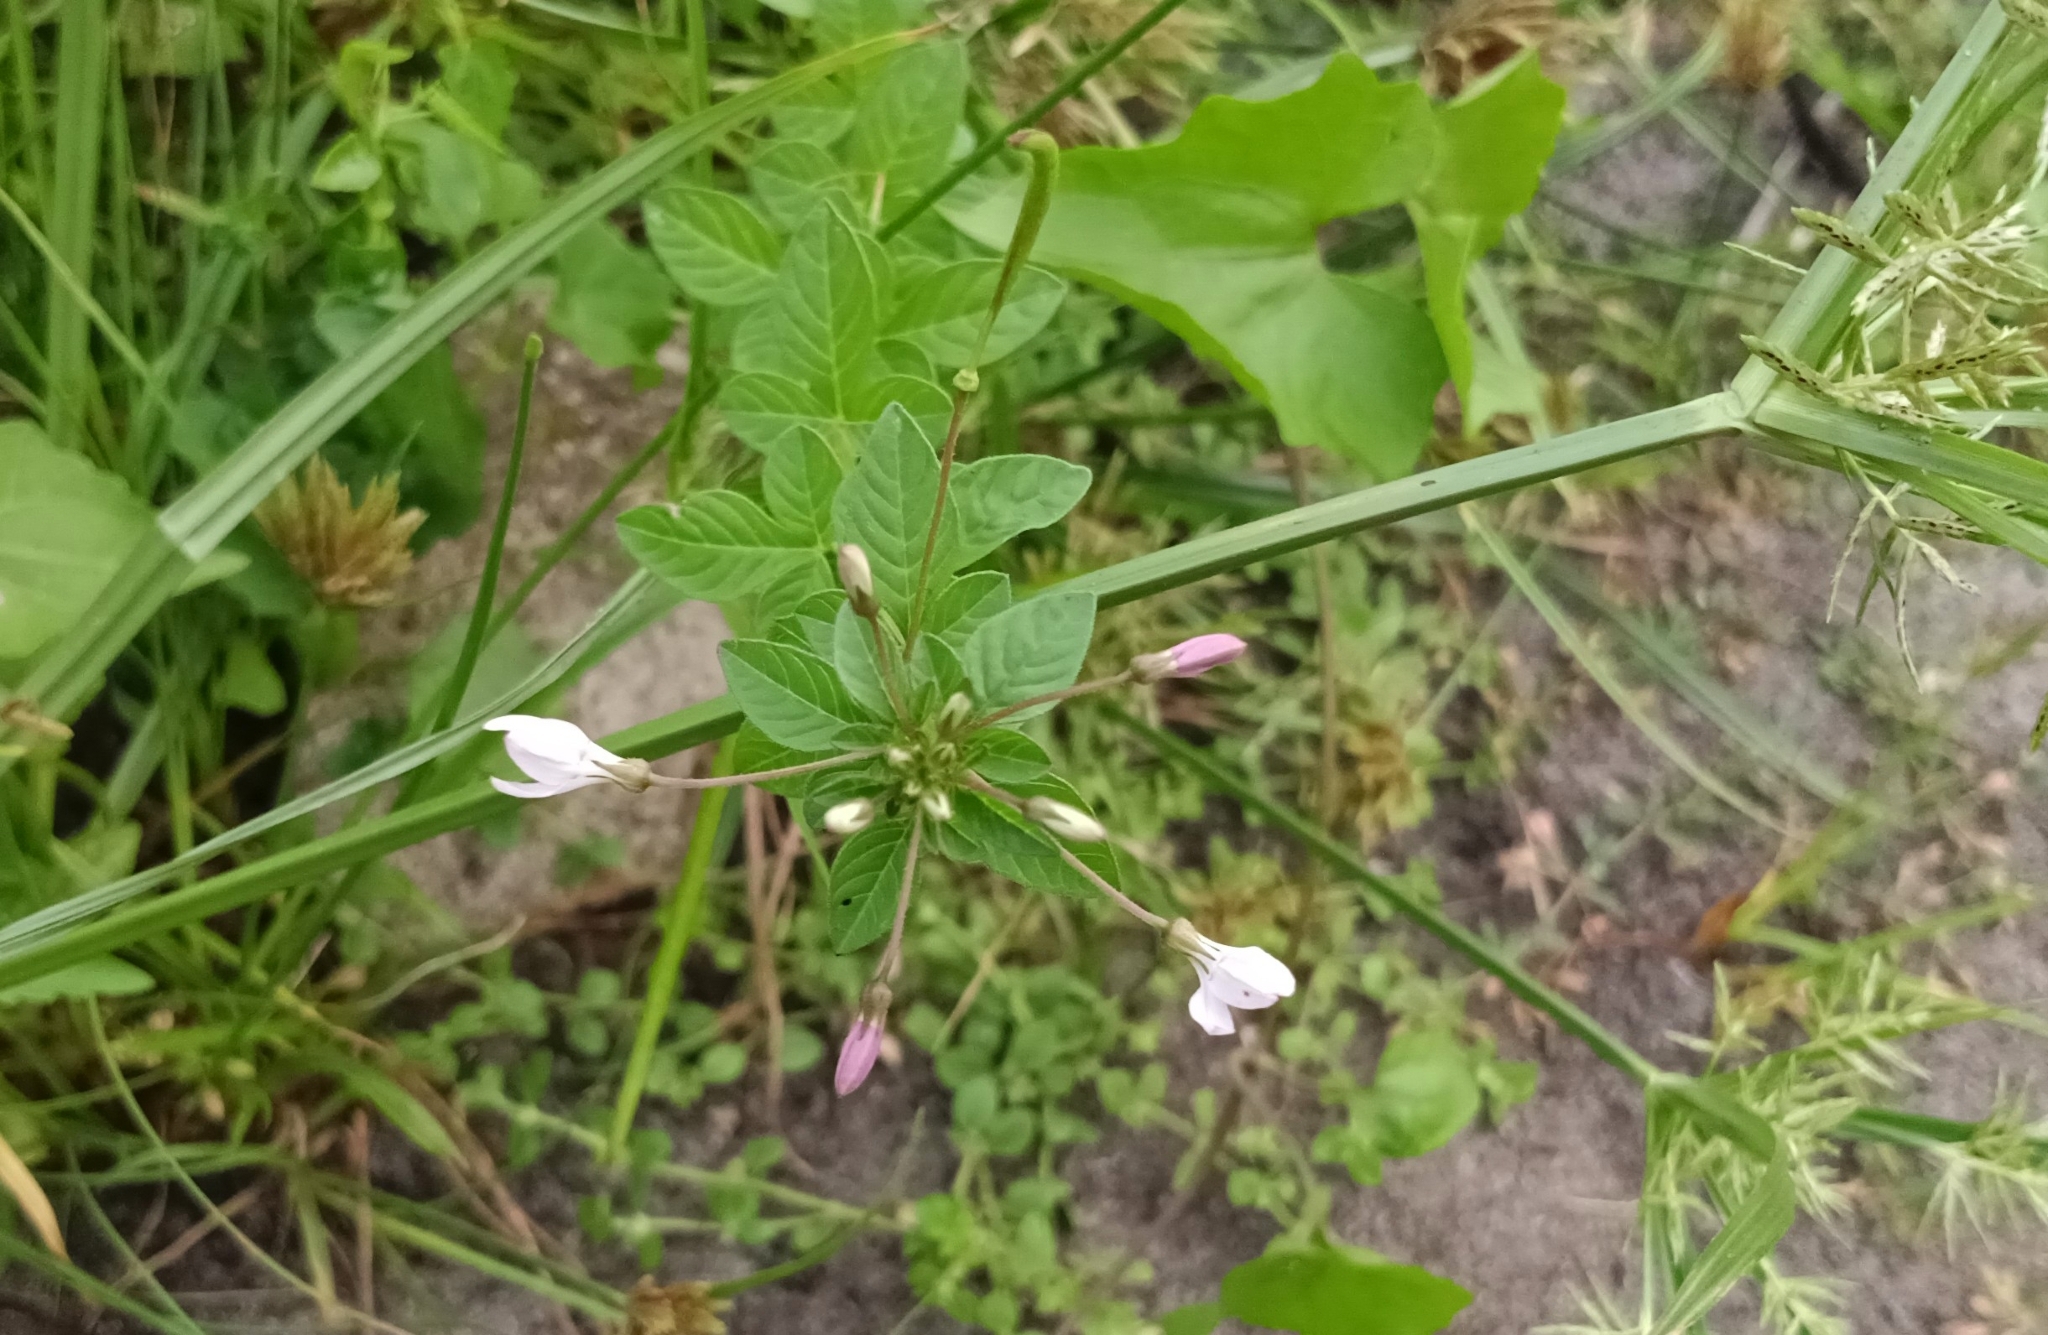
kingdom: Plantae
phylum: Tracheophyta
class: Magnoliopsida
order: Brassicales
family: Cleomaceae
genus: Sieruela
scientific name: Sieruela rutidosperma
